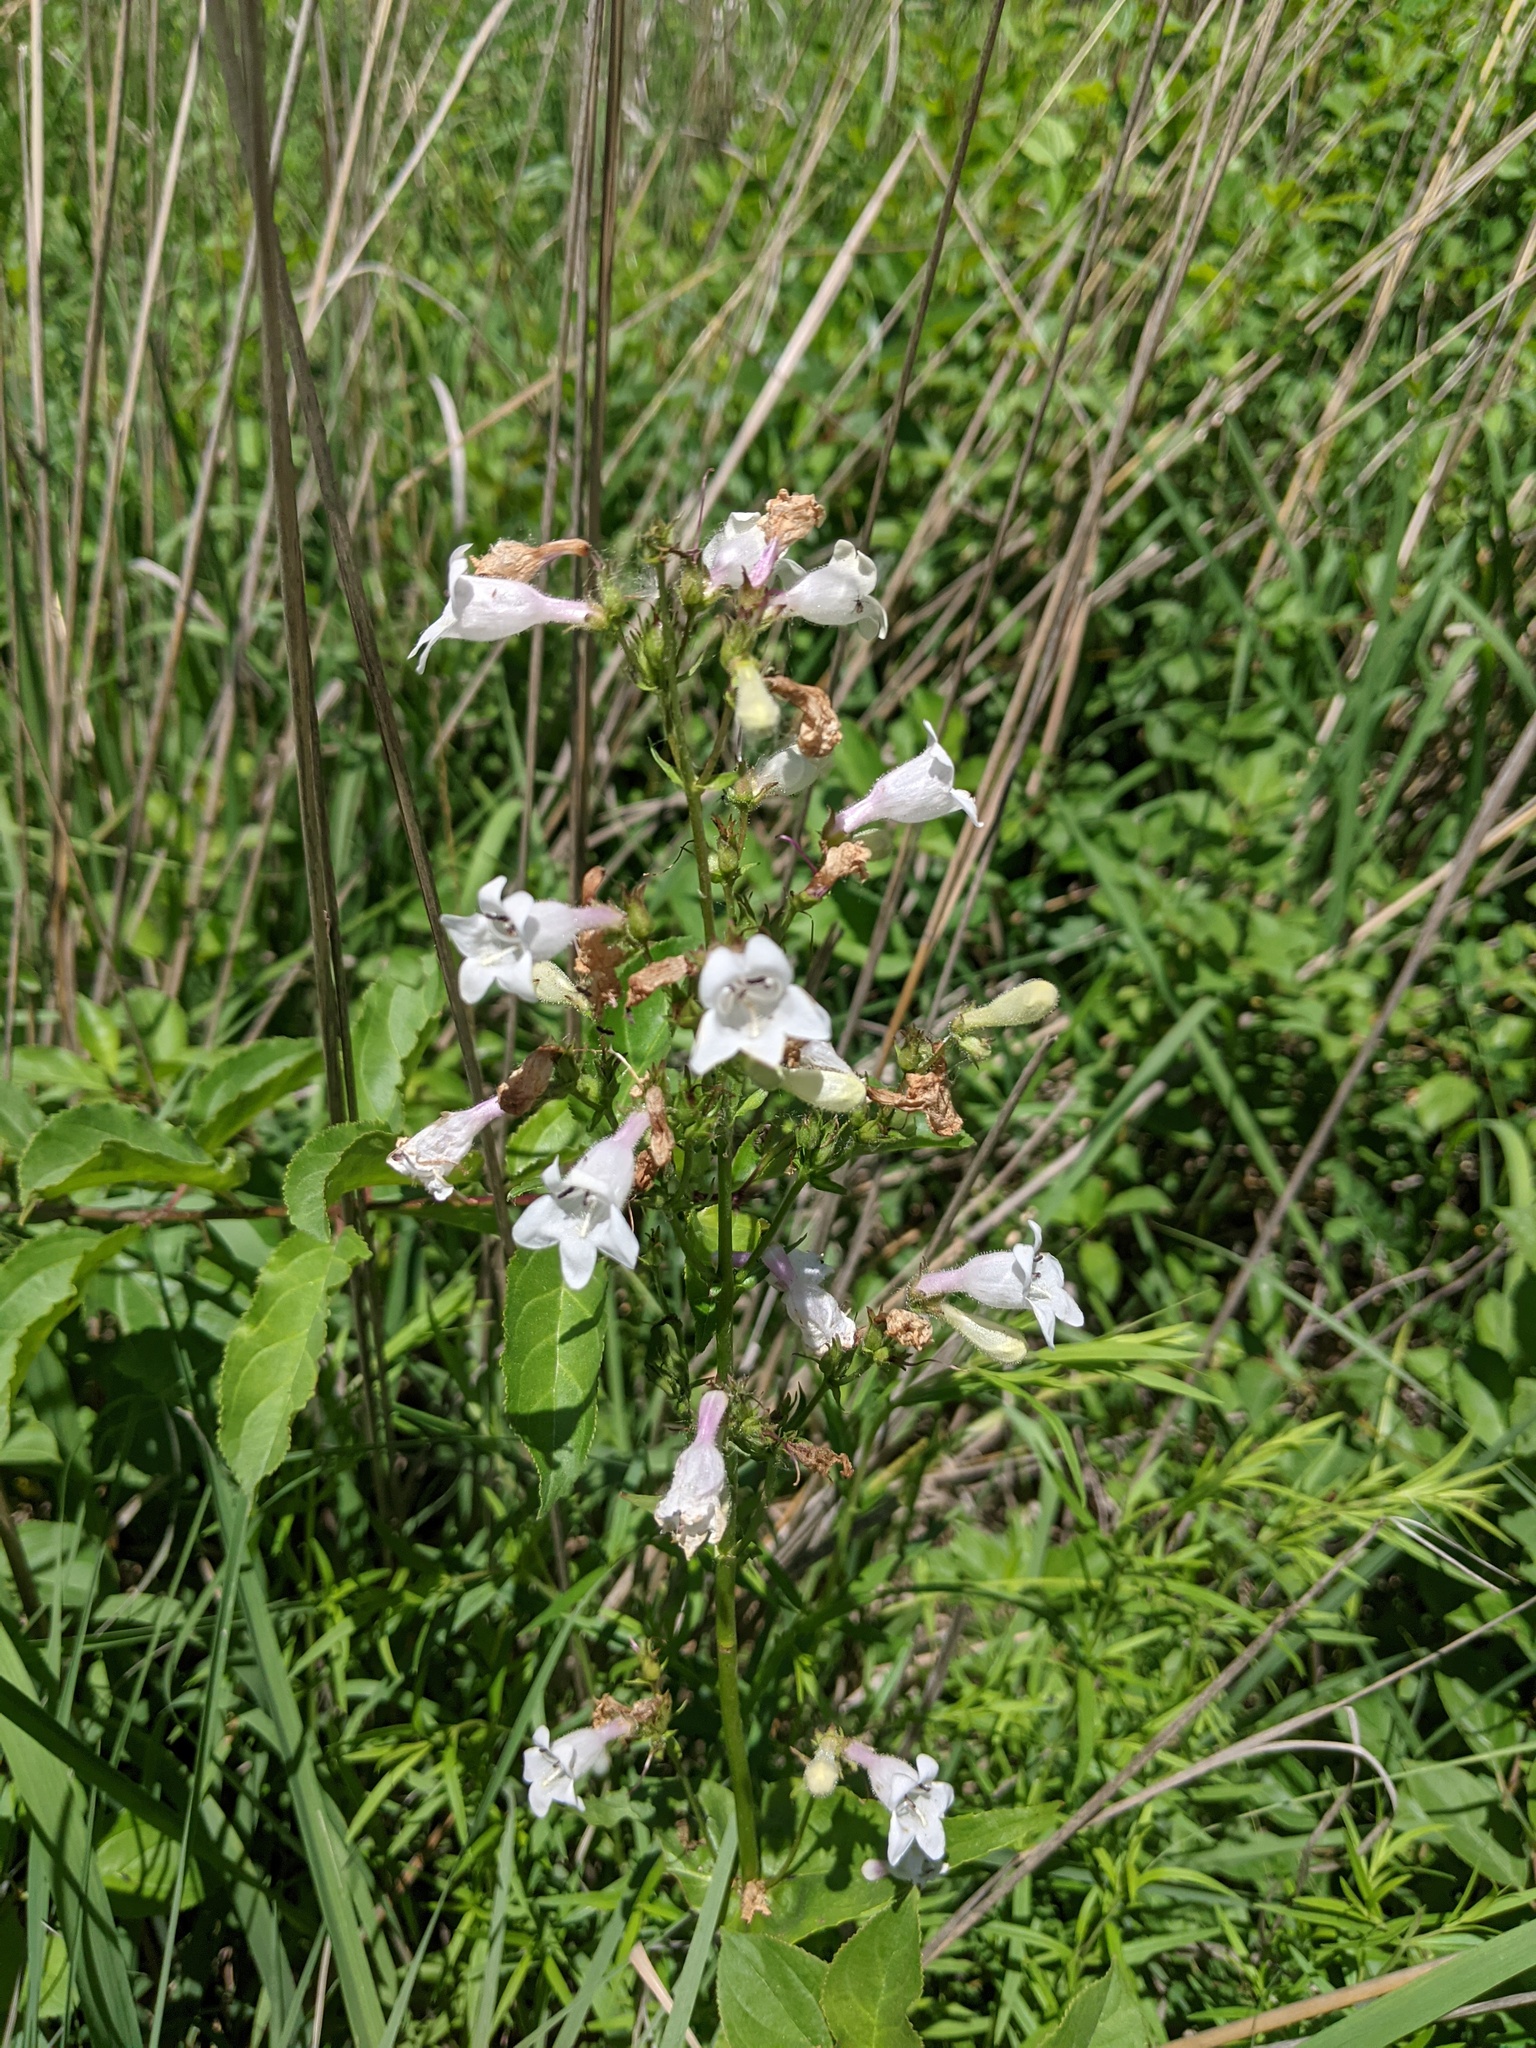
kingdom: Plantae
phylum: Tracheophyta
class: Magnoliopsida
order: Lamiales
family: Plantaginaceae
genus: Penstemon
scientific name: Penstemon digitalis
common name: Foxglove beardtongue
